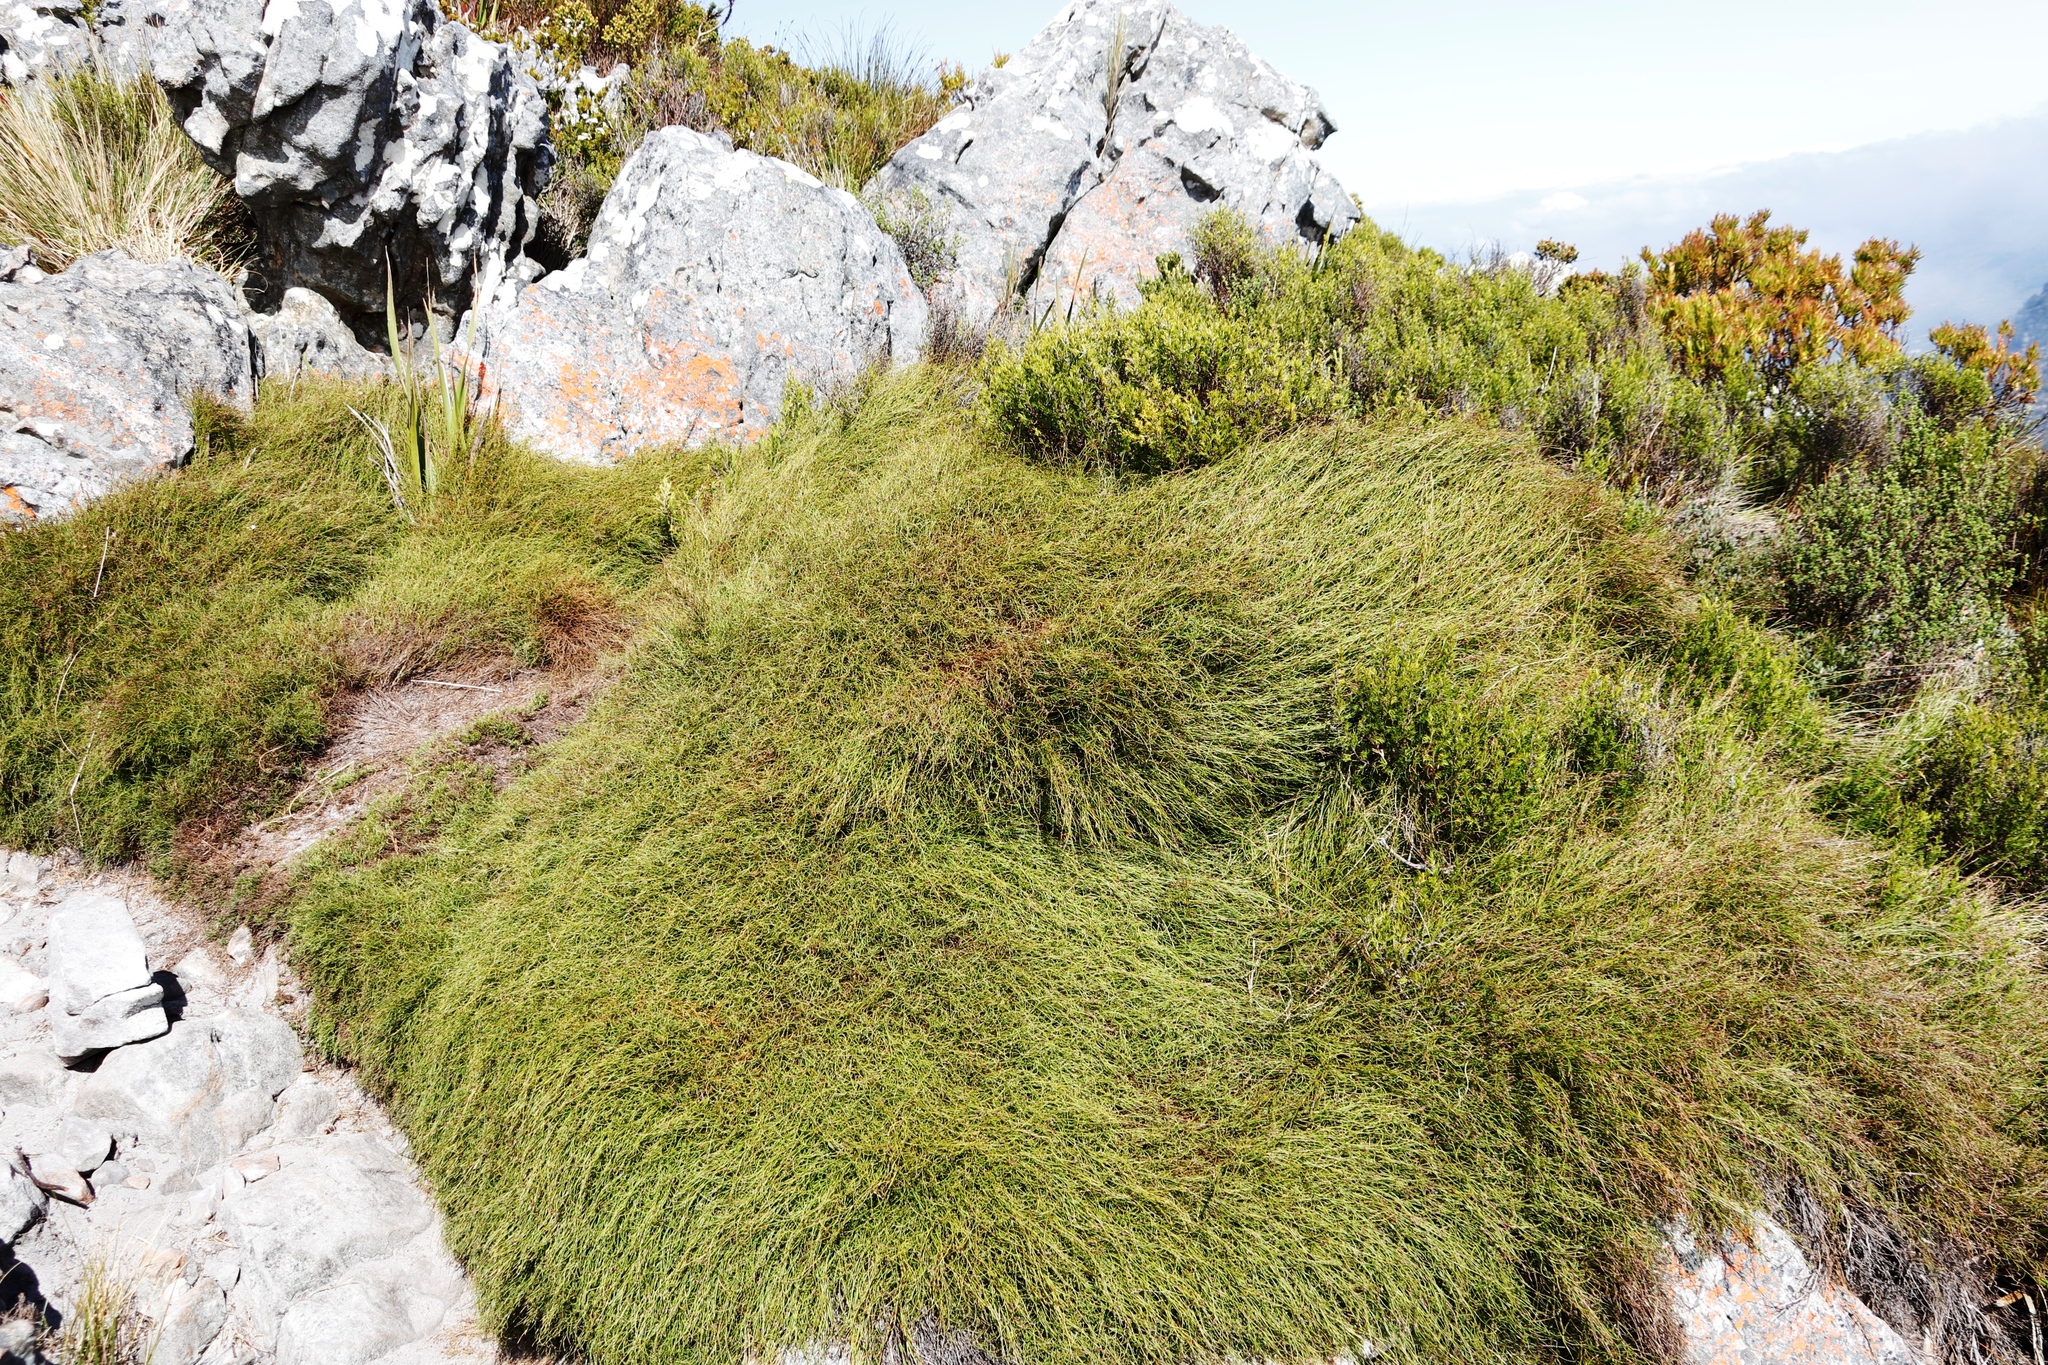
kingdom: Plantae
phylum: Tracheophyta
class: Liliopsida
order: Poales
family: Restionaceae
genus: Restio
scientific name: Restio perplexus
